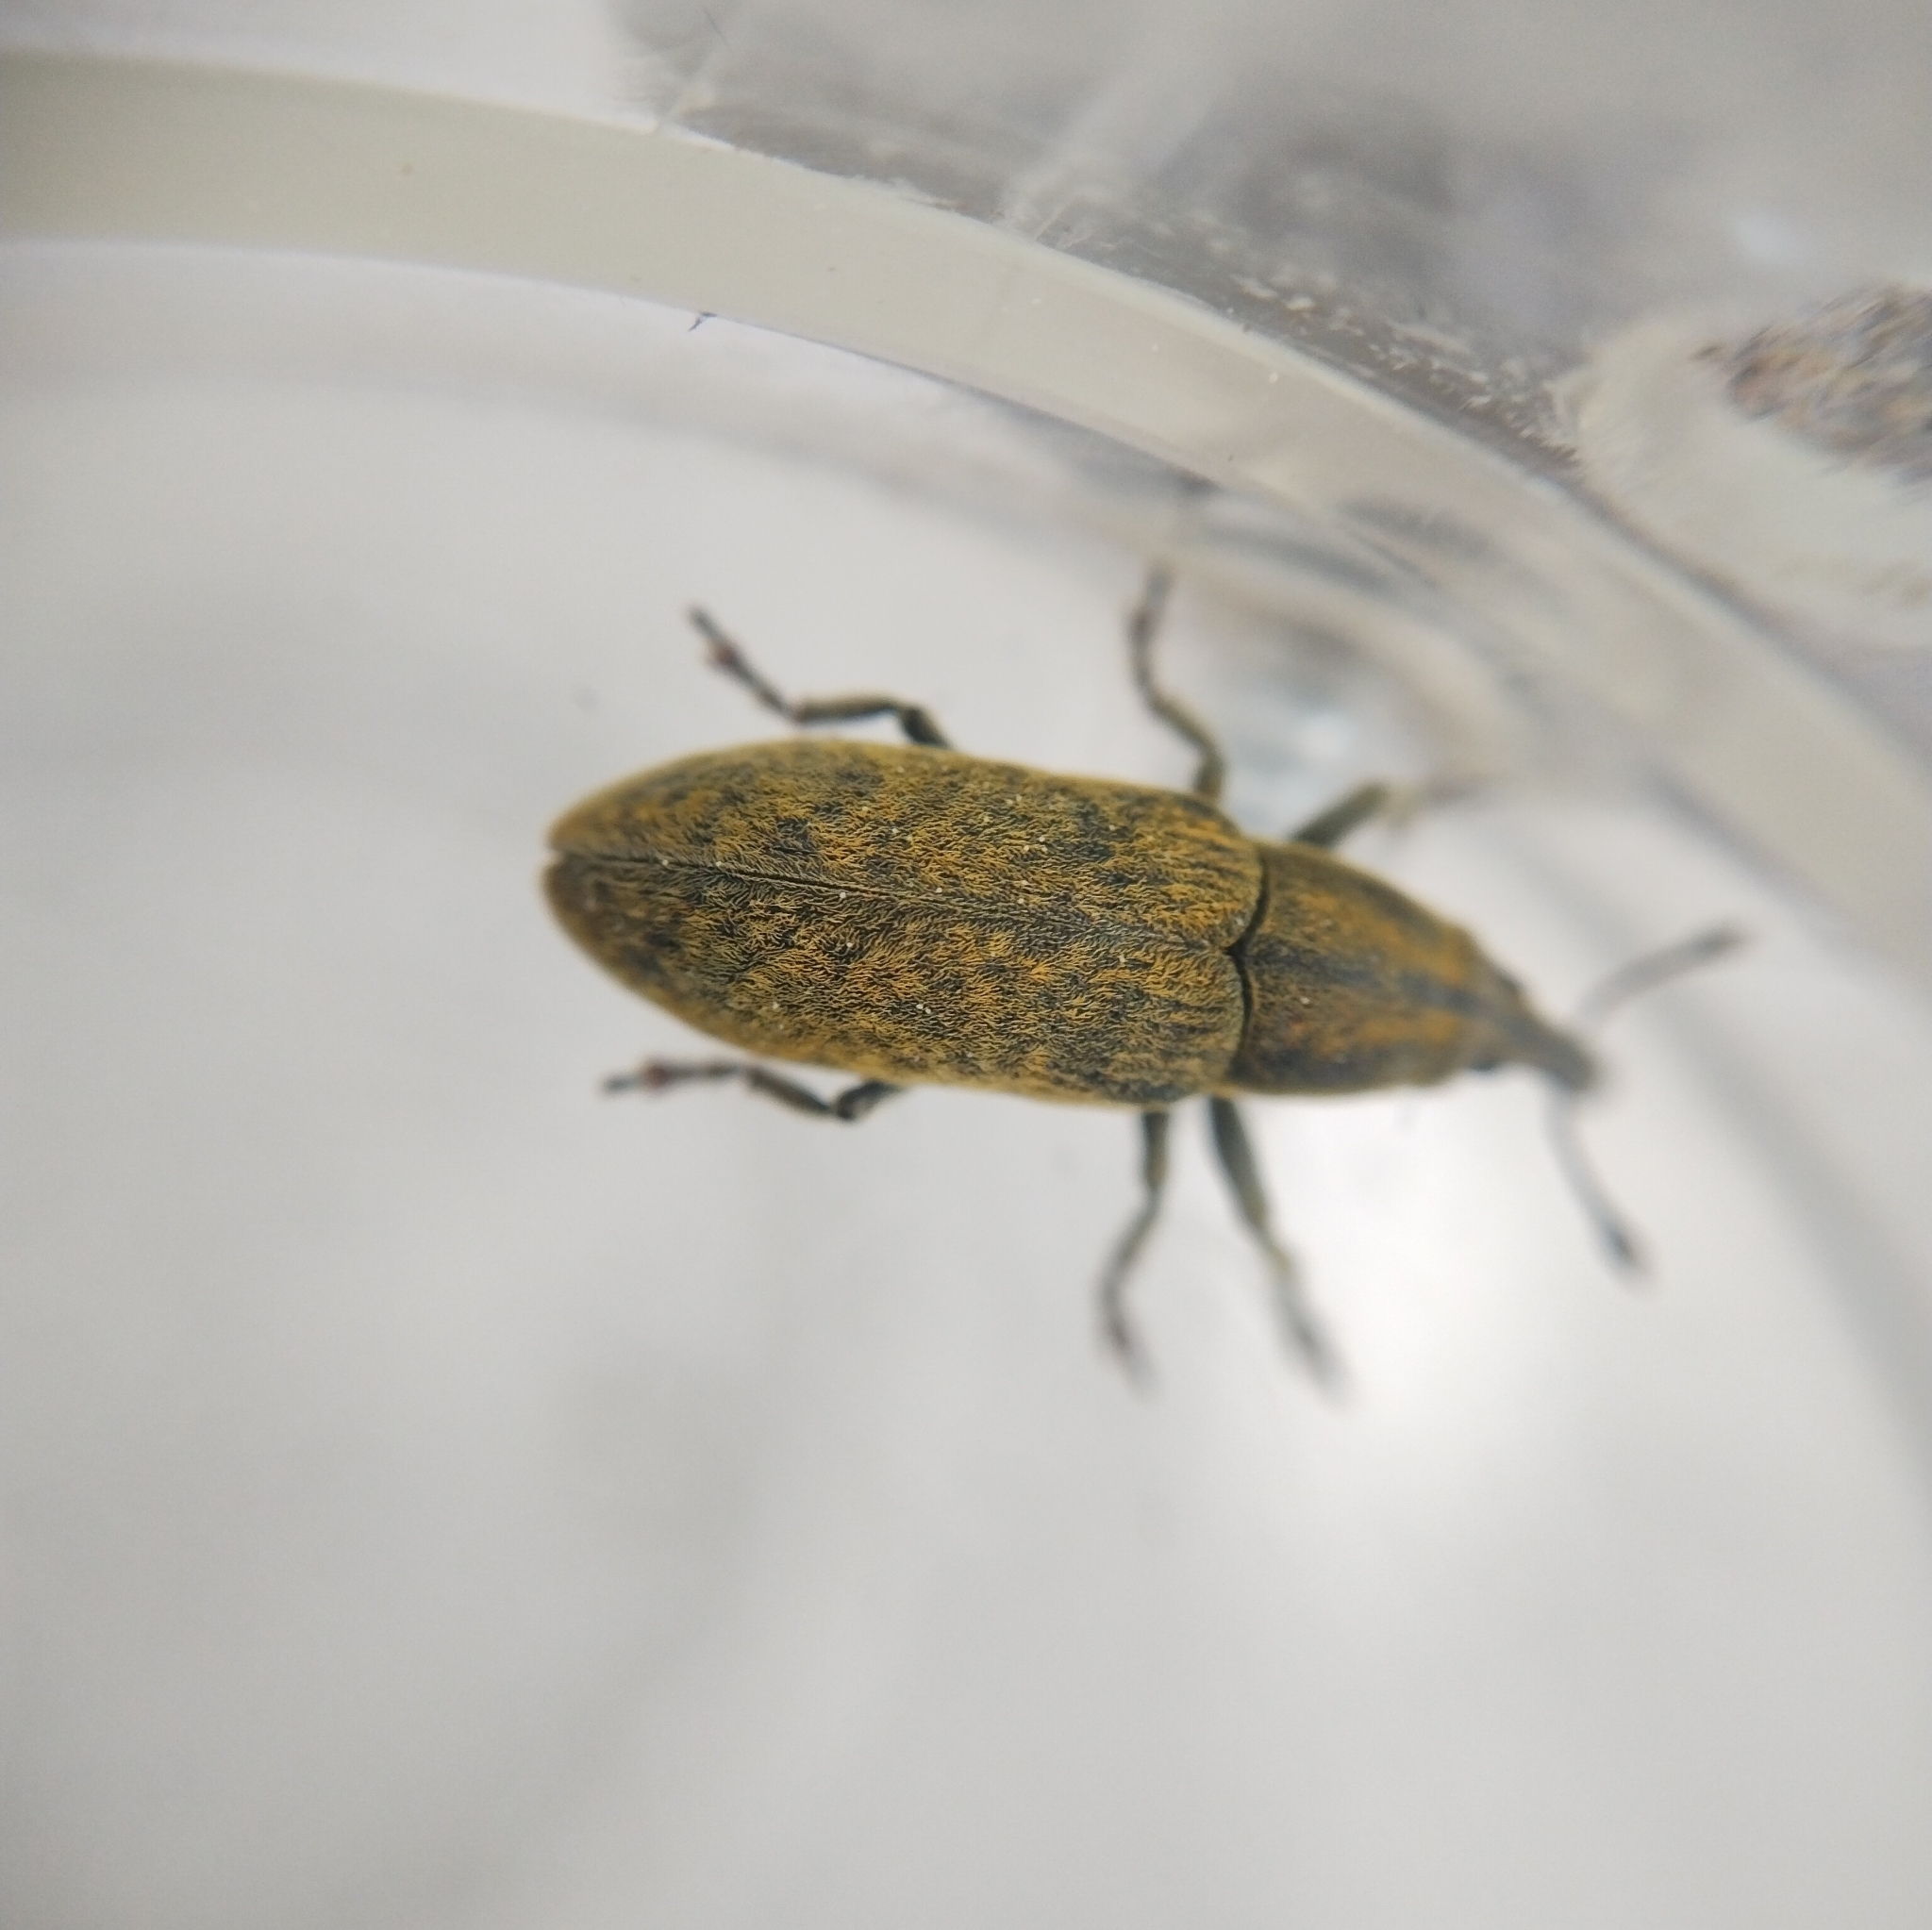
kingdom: Animalia
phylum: Arthropoda
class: Insecta
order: Coleoptera
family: Curculionidae
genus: Lixus
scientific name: Lixus cardui
